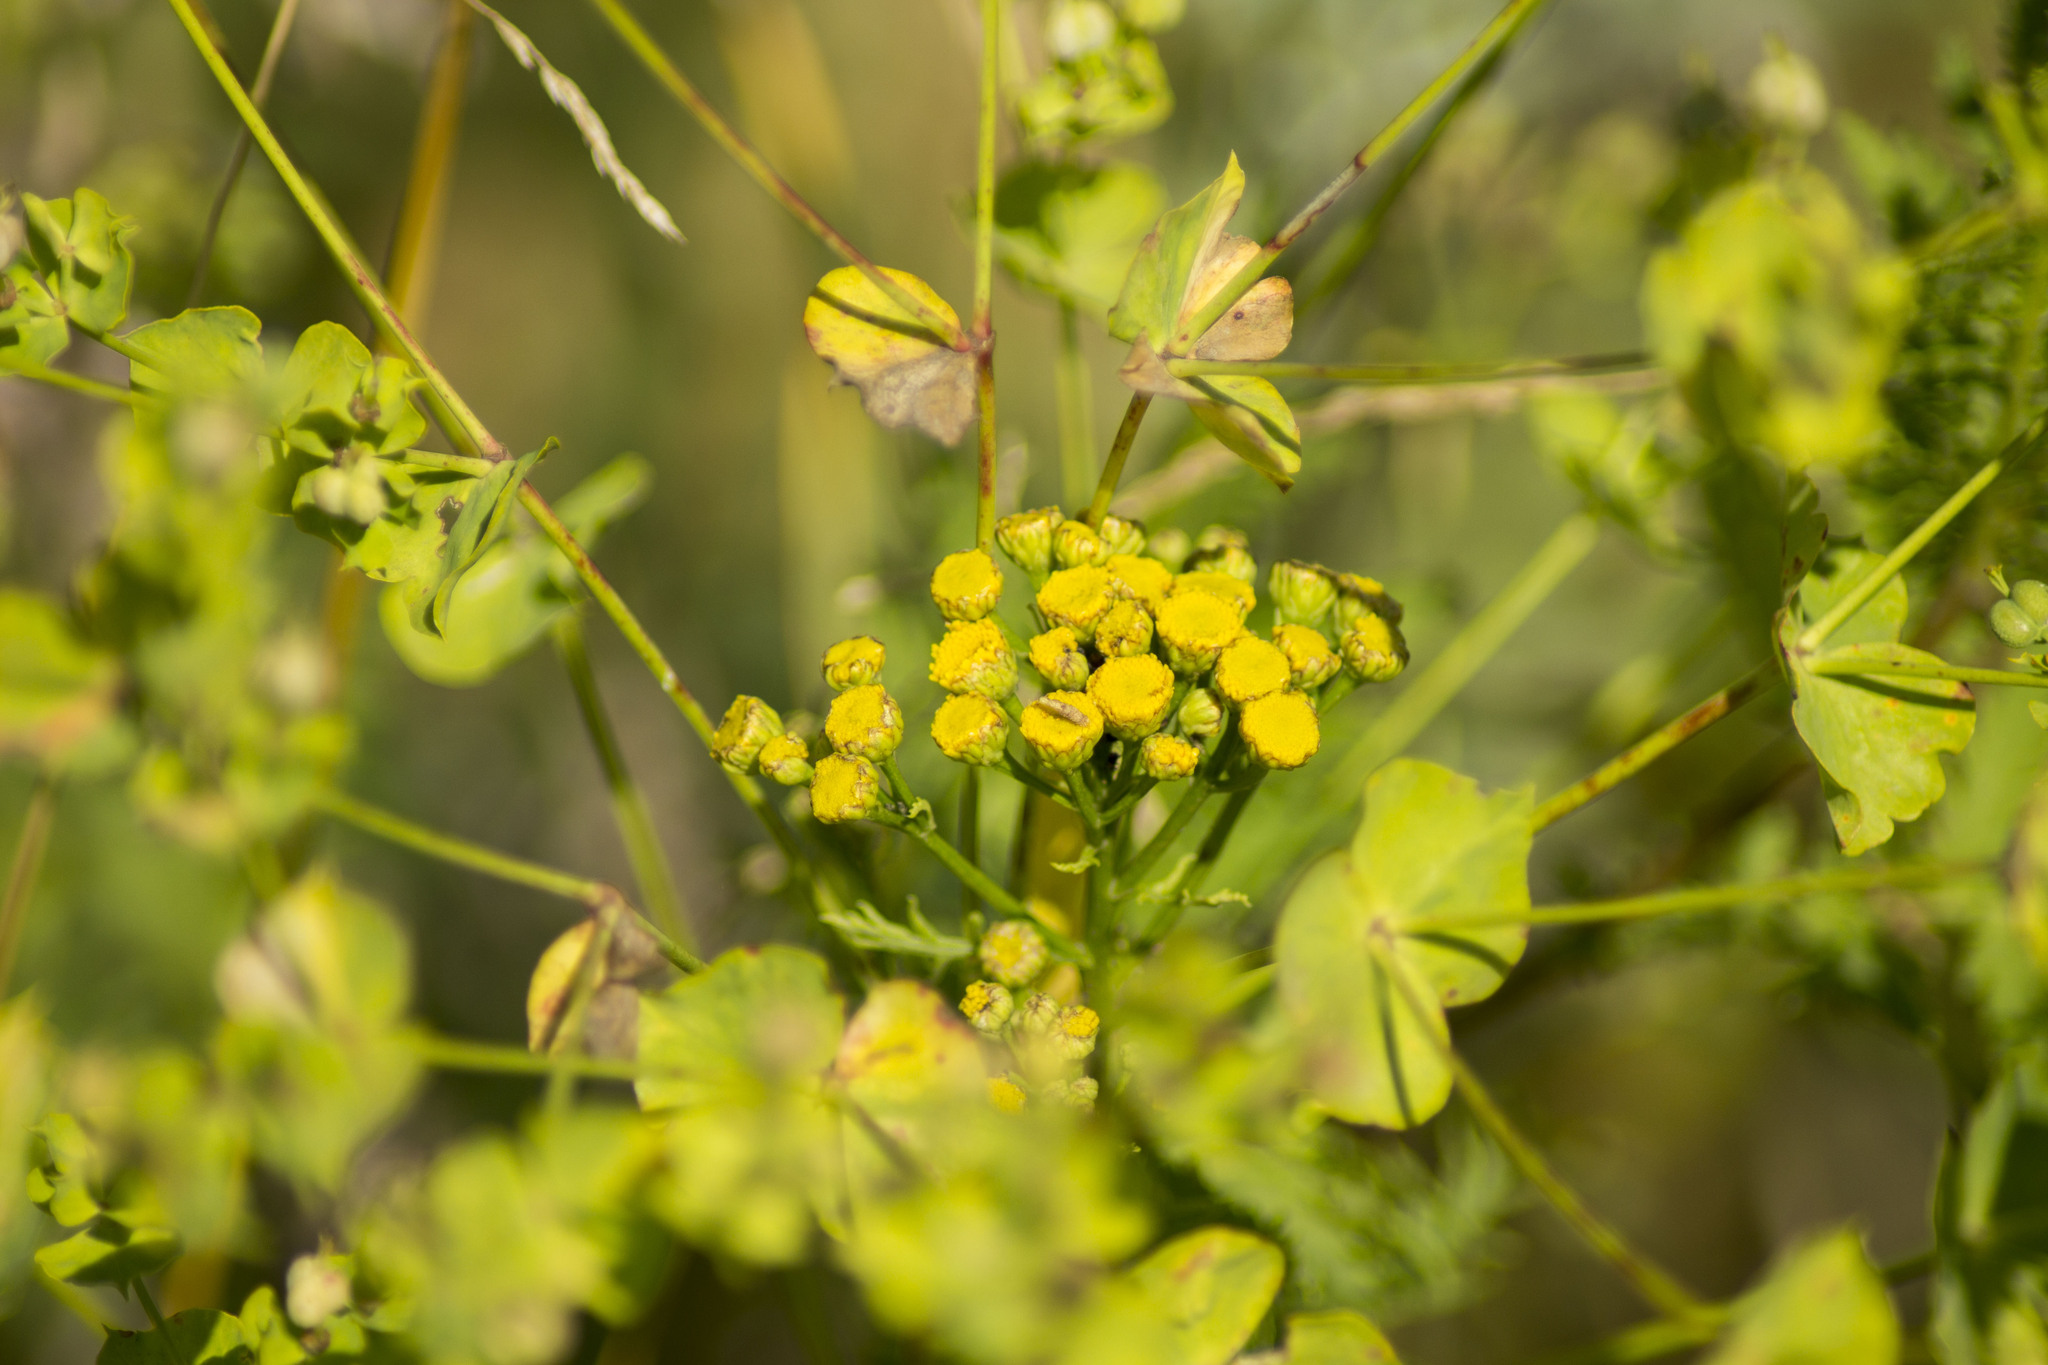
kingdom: Plantae
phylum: Tracheophyta
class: Magnoliopsida
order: Asterales
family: Asteraceae
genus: Tanacetum
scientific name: Tanacetum vulgare
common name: Common tansy
